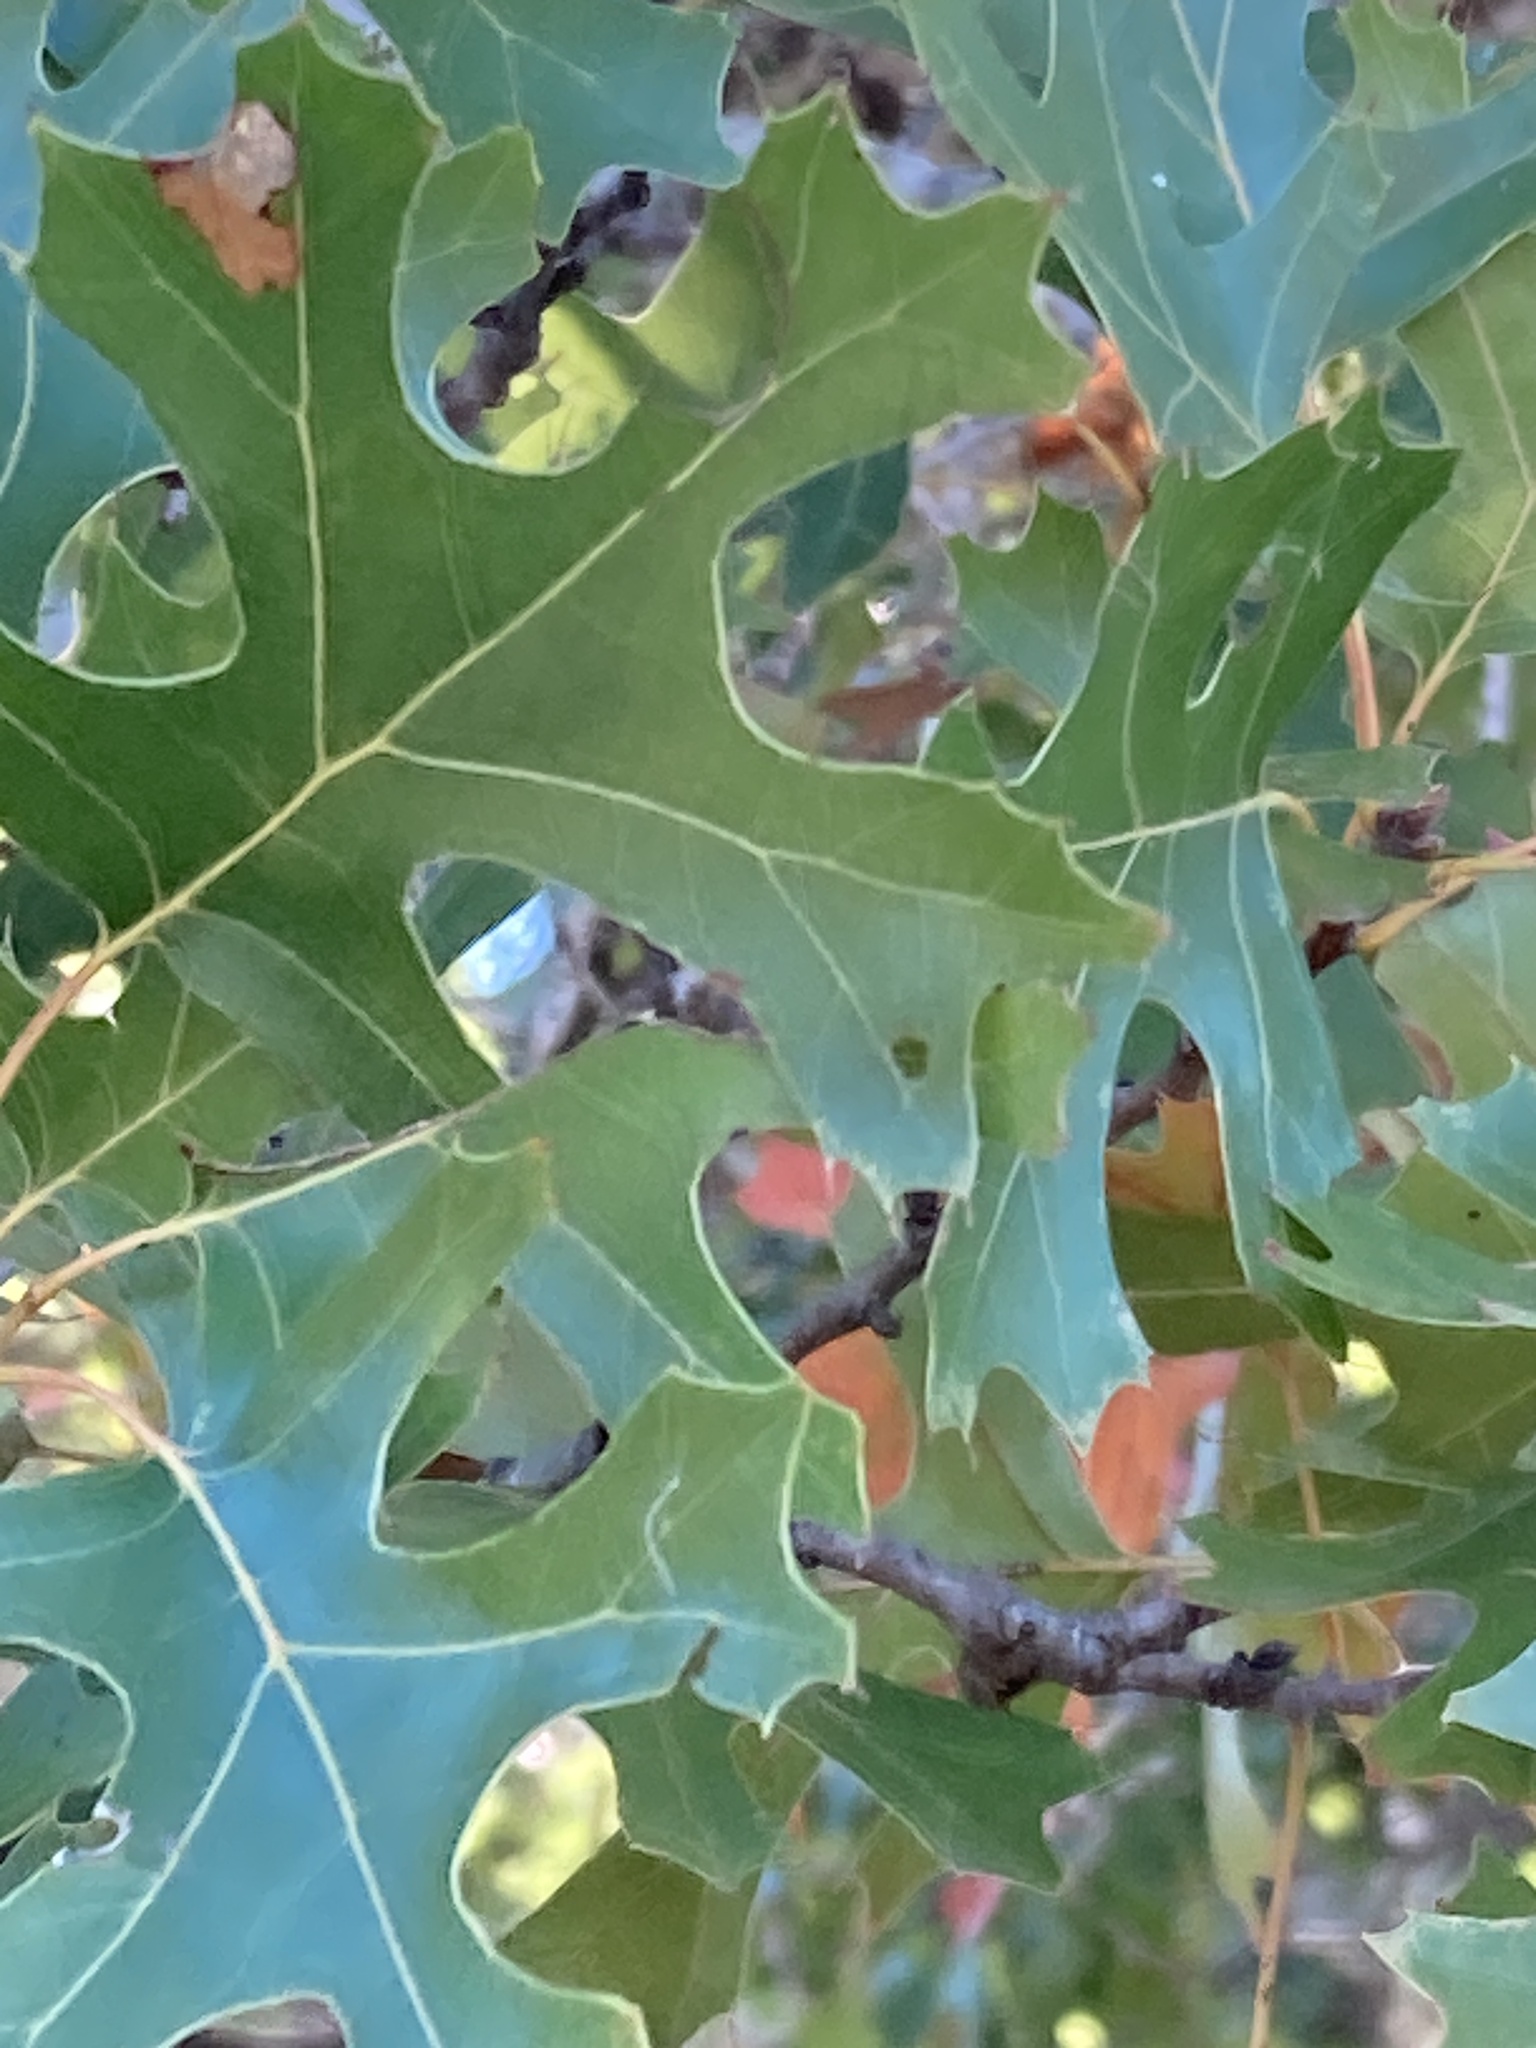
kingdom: Plantae
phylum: Tracheophyta
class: Magnoliopsida
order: Fagales
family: Fagaceae
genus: Quercus
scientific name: Quercus buckleyi
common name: Buckley oak
